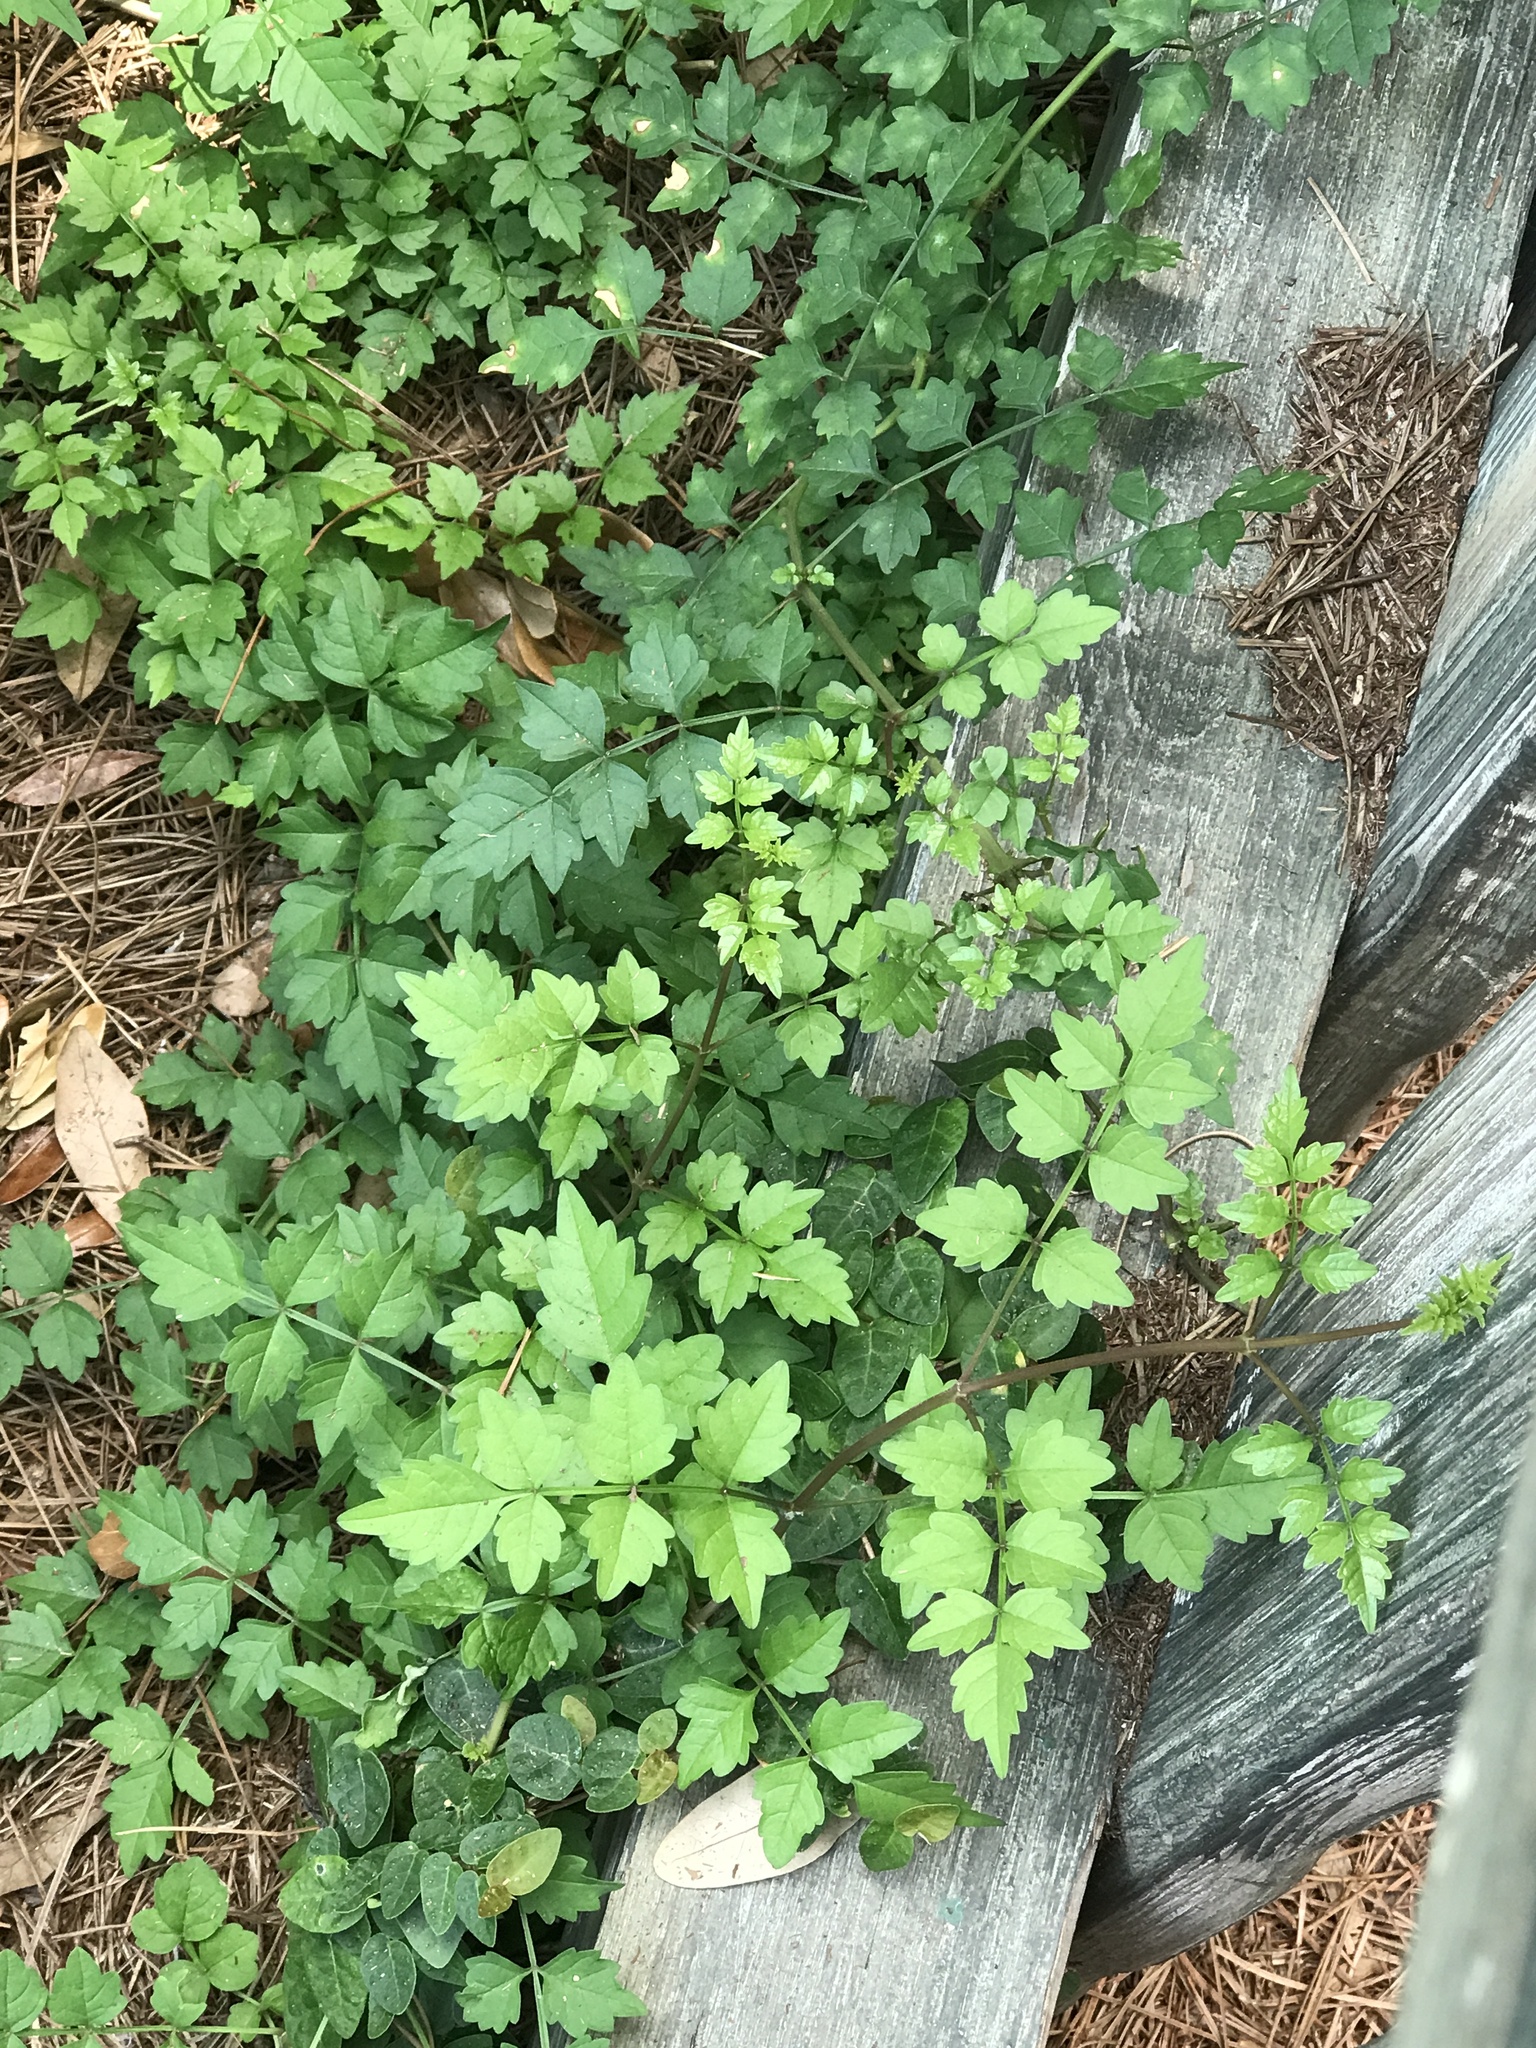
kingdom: Plantae
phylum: Tracheophyta
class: Magnoliopsida
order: Vitales
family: Vitaceae
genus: Nekemias
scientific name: Nekemias arborea
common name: Peppervine
